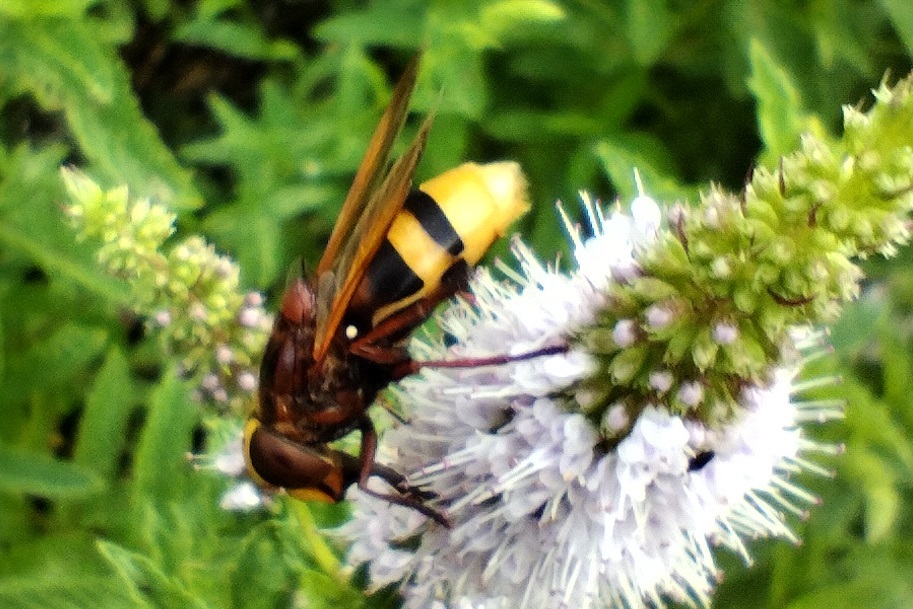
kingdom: Animalia
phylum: Arthropoda
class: Insecta
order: Diptera
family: Syrphidae
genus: Volucella
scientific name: Volucella zonaria
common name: Hornet hoverfly
